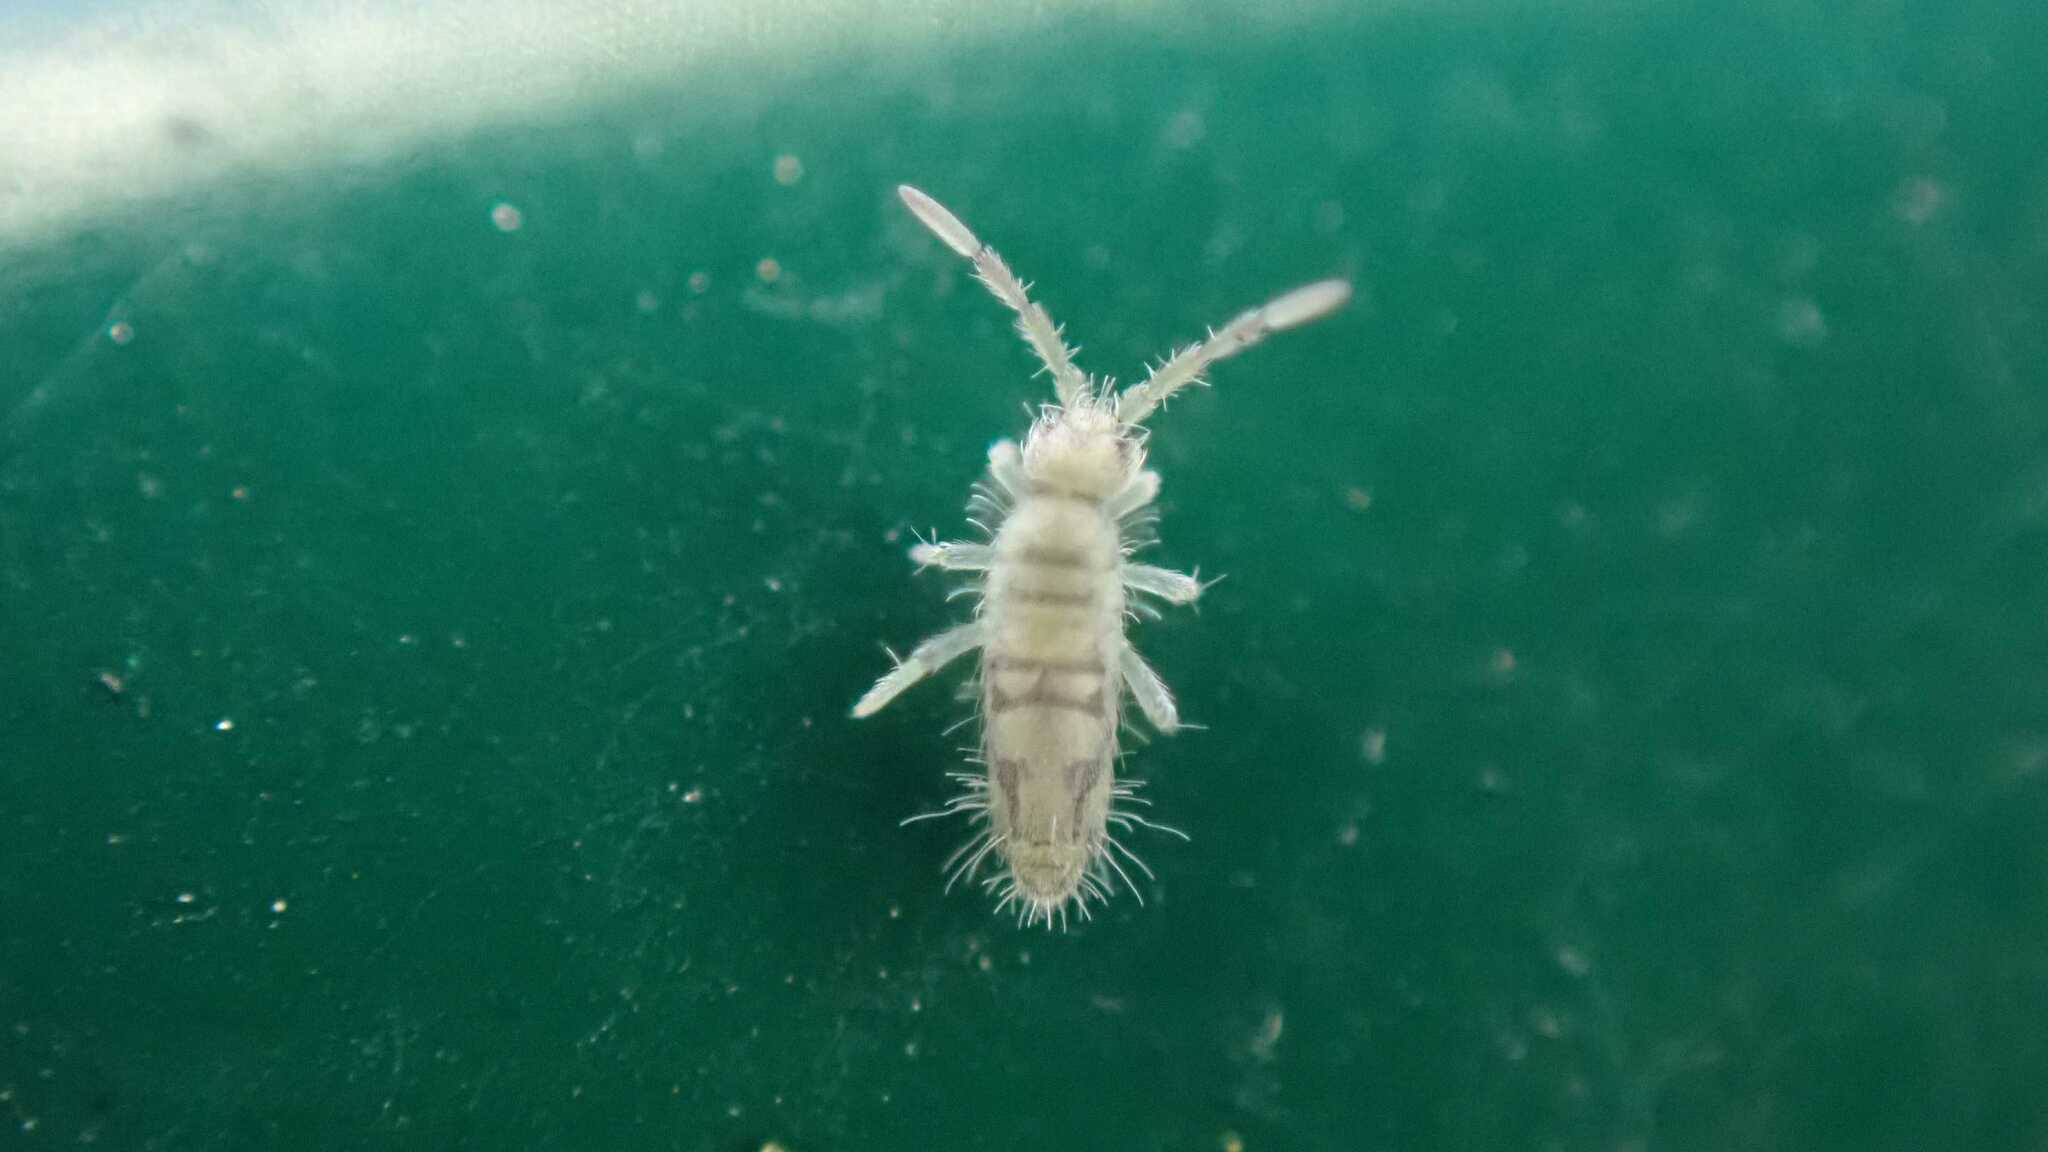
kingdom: Animalia
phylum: Arthropoda
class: Collembola
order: Entomobryomorpha
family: Entomobryidae
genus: Entomobrya
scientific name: Entomobrya nivalis
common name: Cosmopolitan springtail
